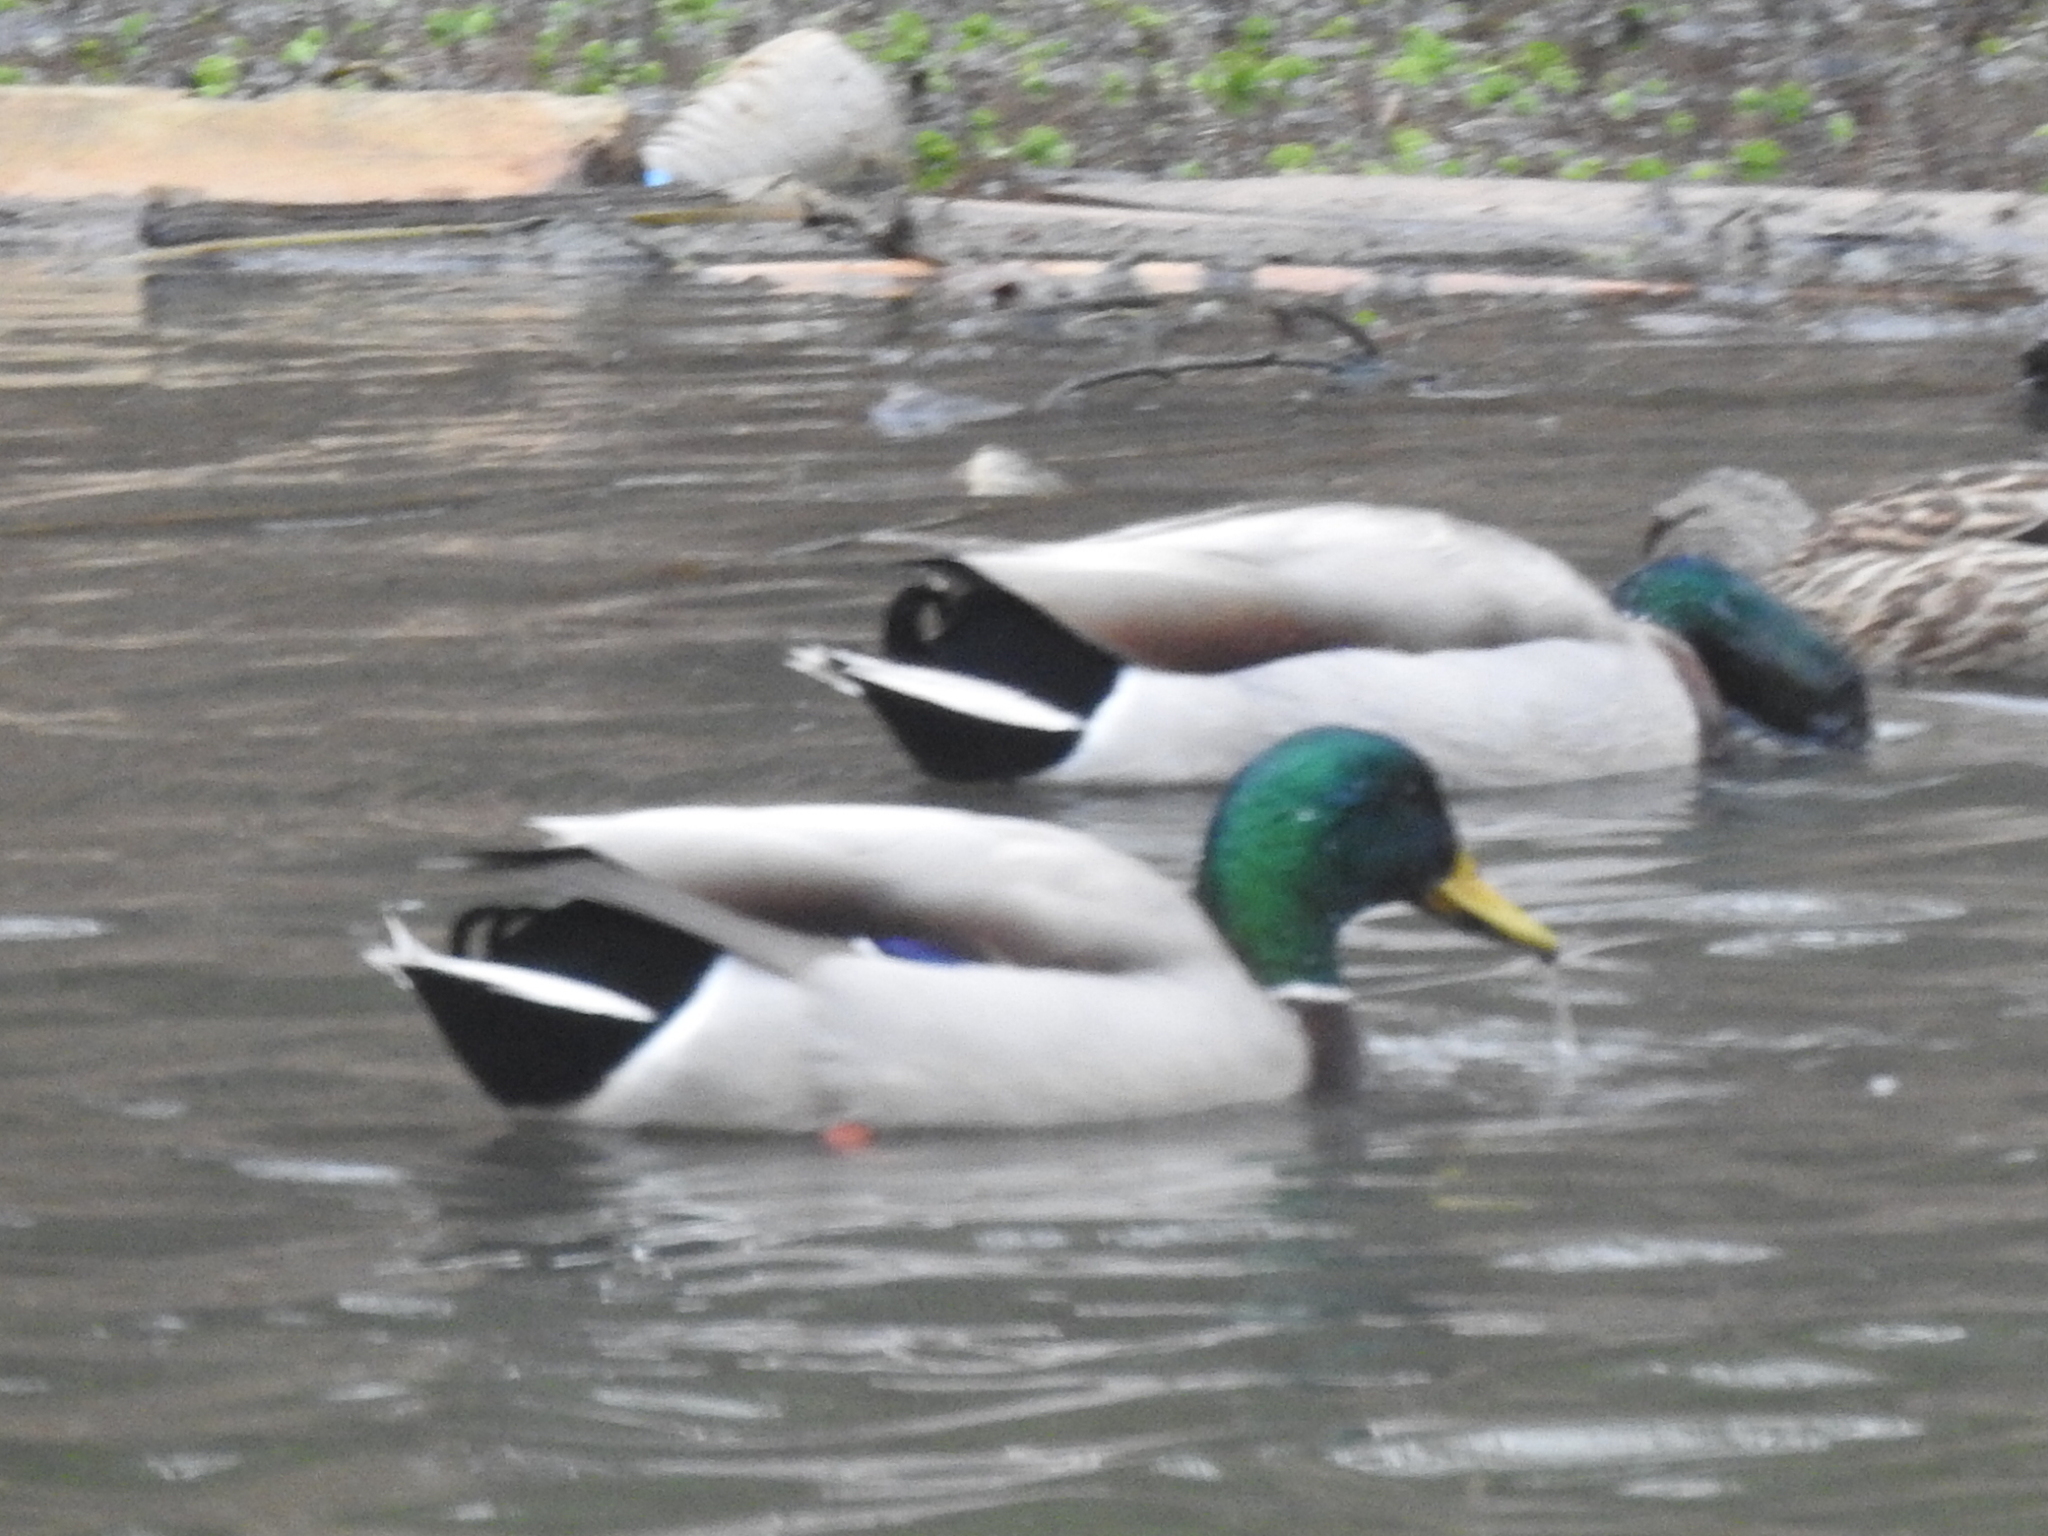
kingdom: Animalia
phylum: Chordata
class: Aves
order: Anseriformes
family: Anatidae
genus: Anas
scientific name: Anas platyrhynchos
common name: Mallard
